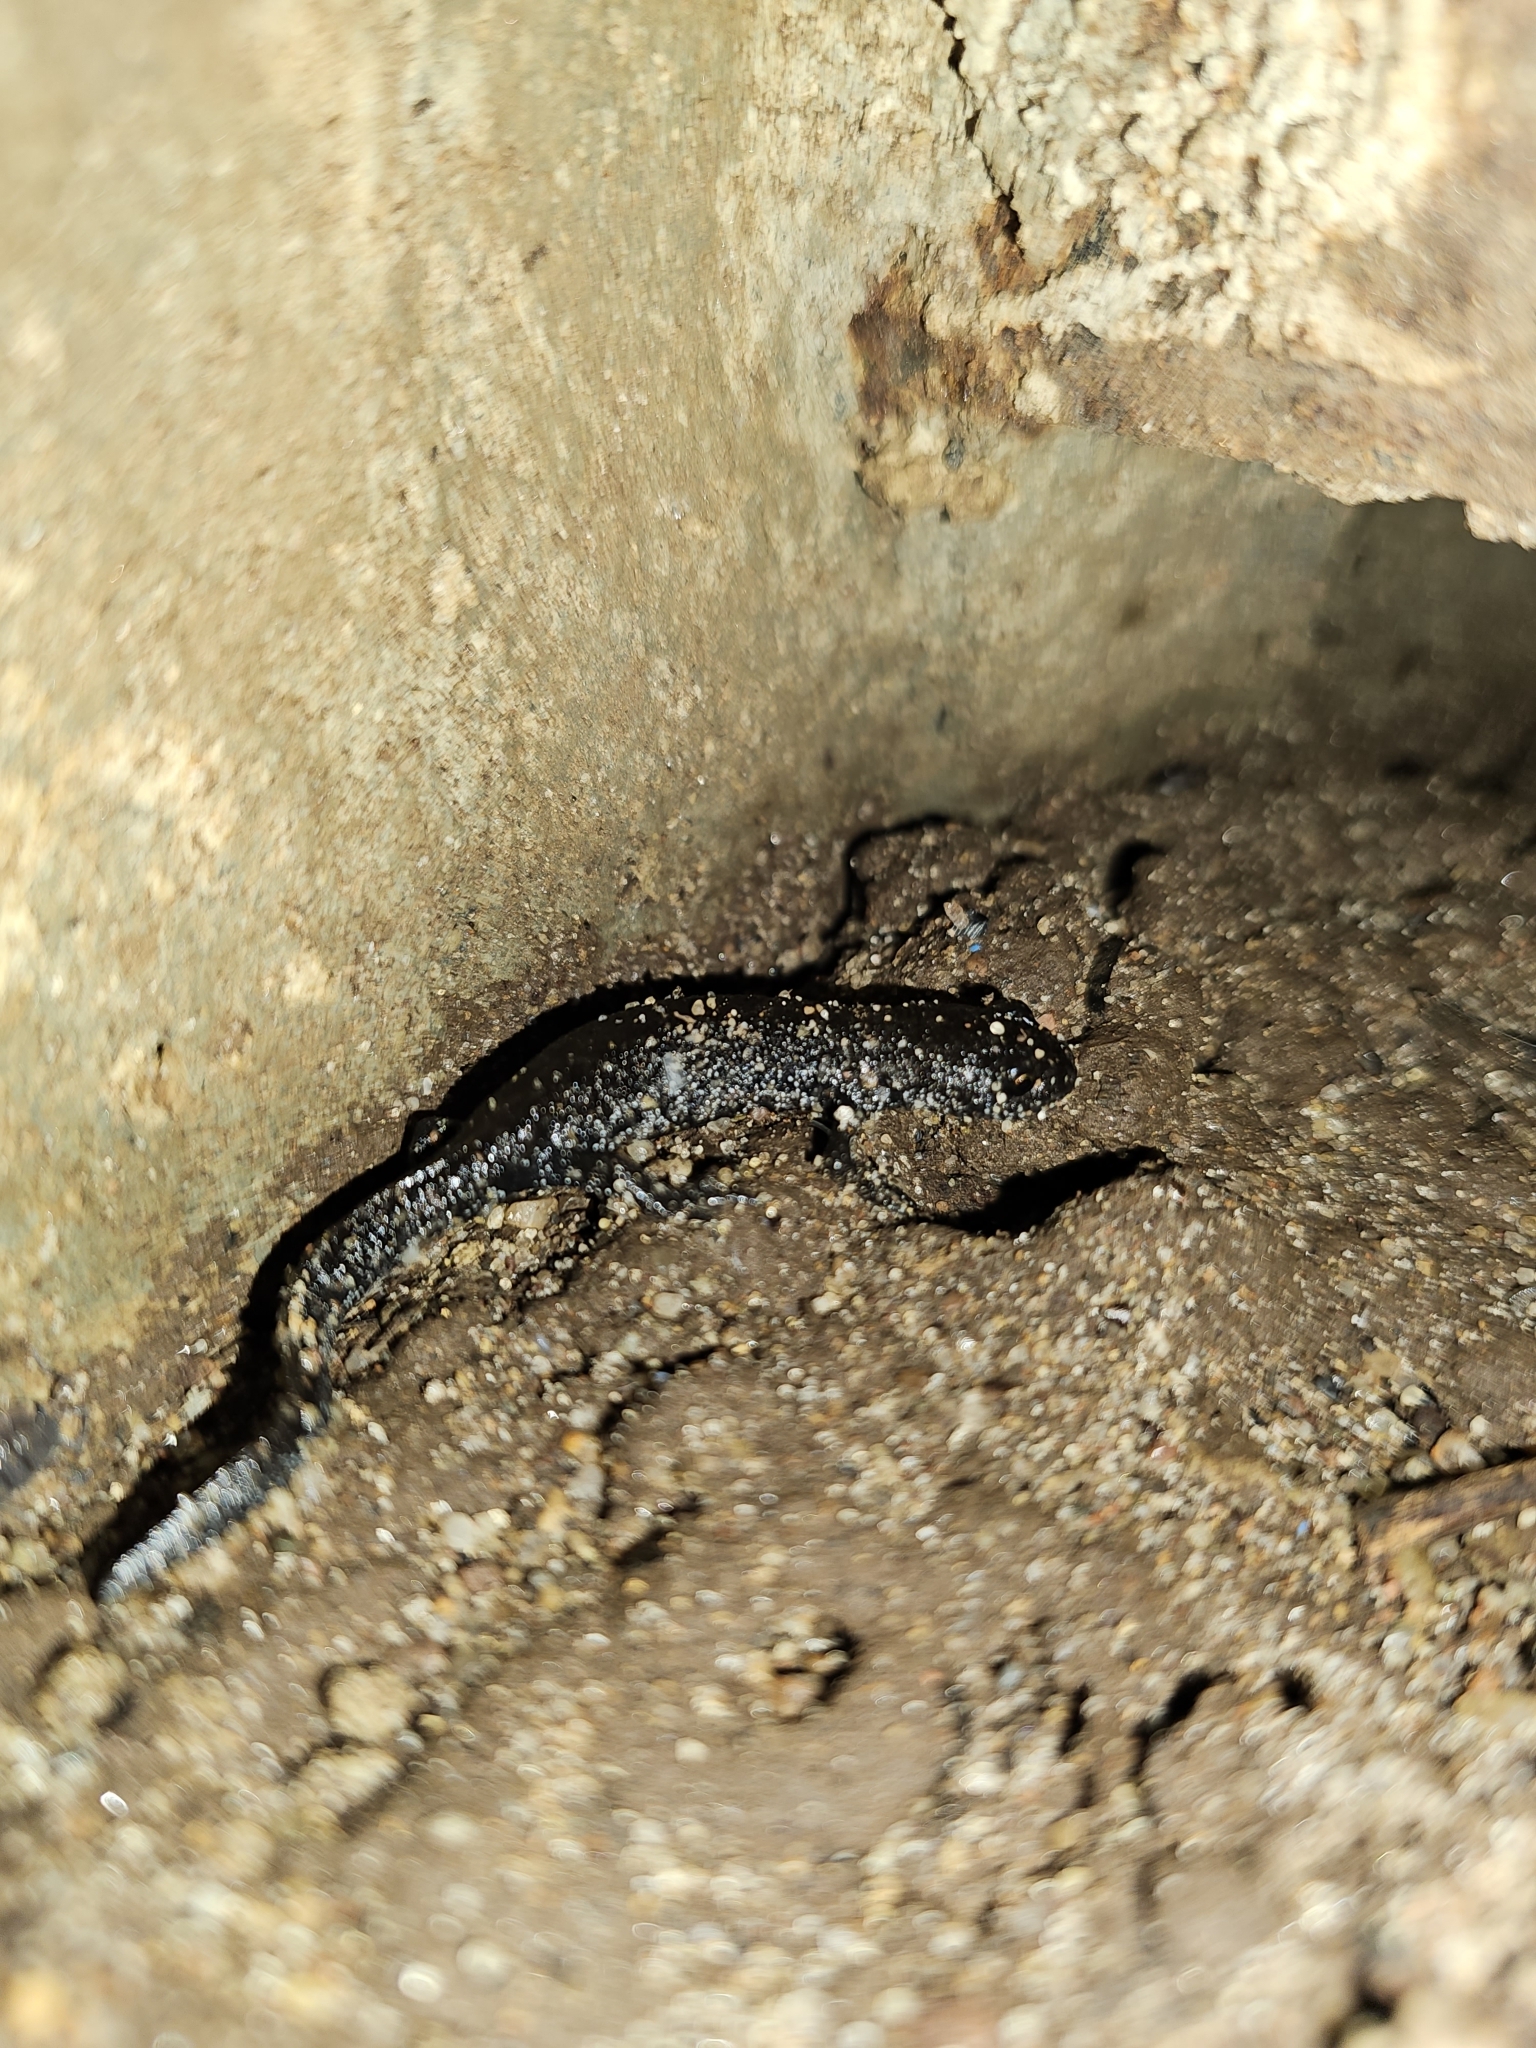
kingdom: Animalia
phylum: Chordata
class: Amphibia
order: Caudata
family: Salamandridae
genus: Triturus
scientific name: Triturus cristatus
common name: Crested newt
